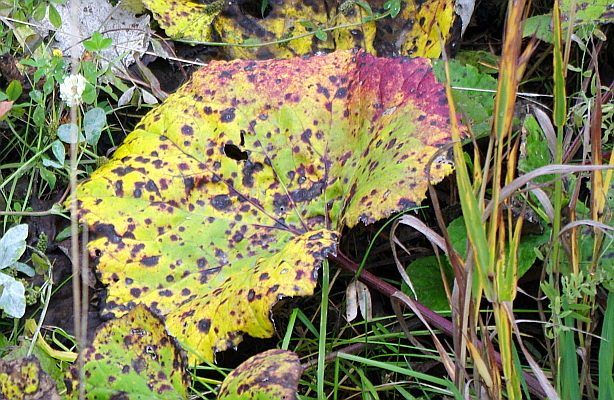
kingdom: Plantae
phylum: Tracheophyta
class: Magnoliopsida
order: Asterales
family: Asteraceae
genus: Tussilago
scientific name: Tussilago farfara
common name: Coltsfoot
